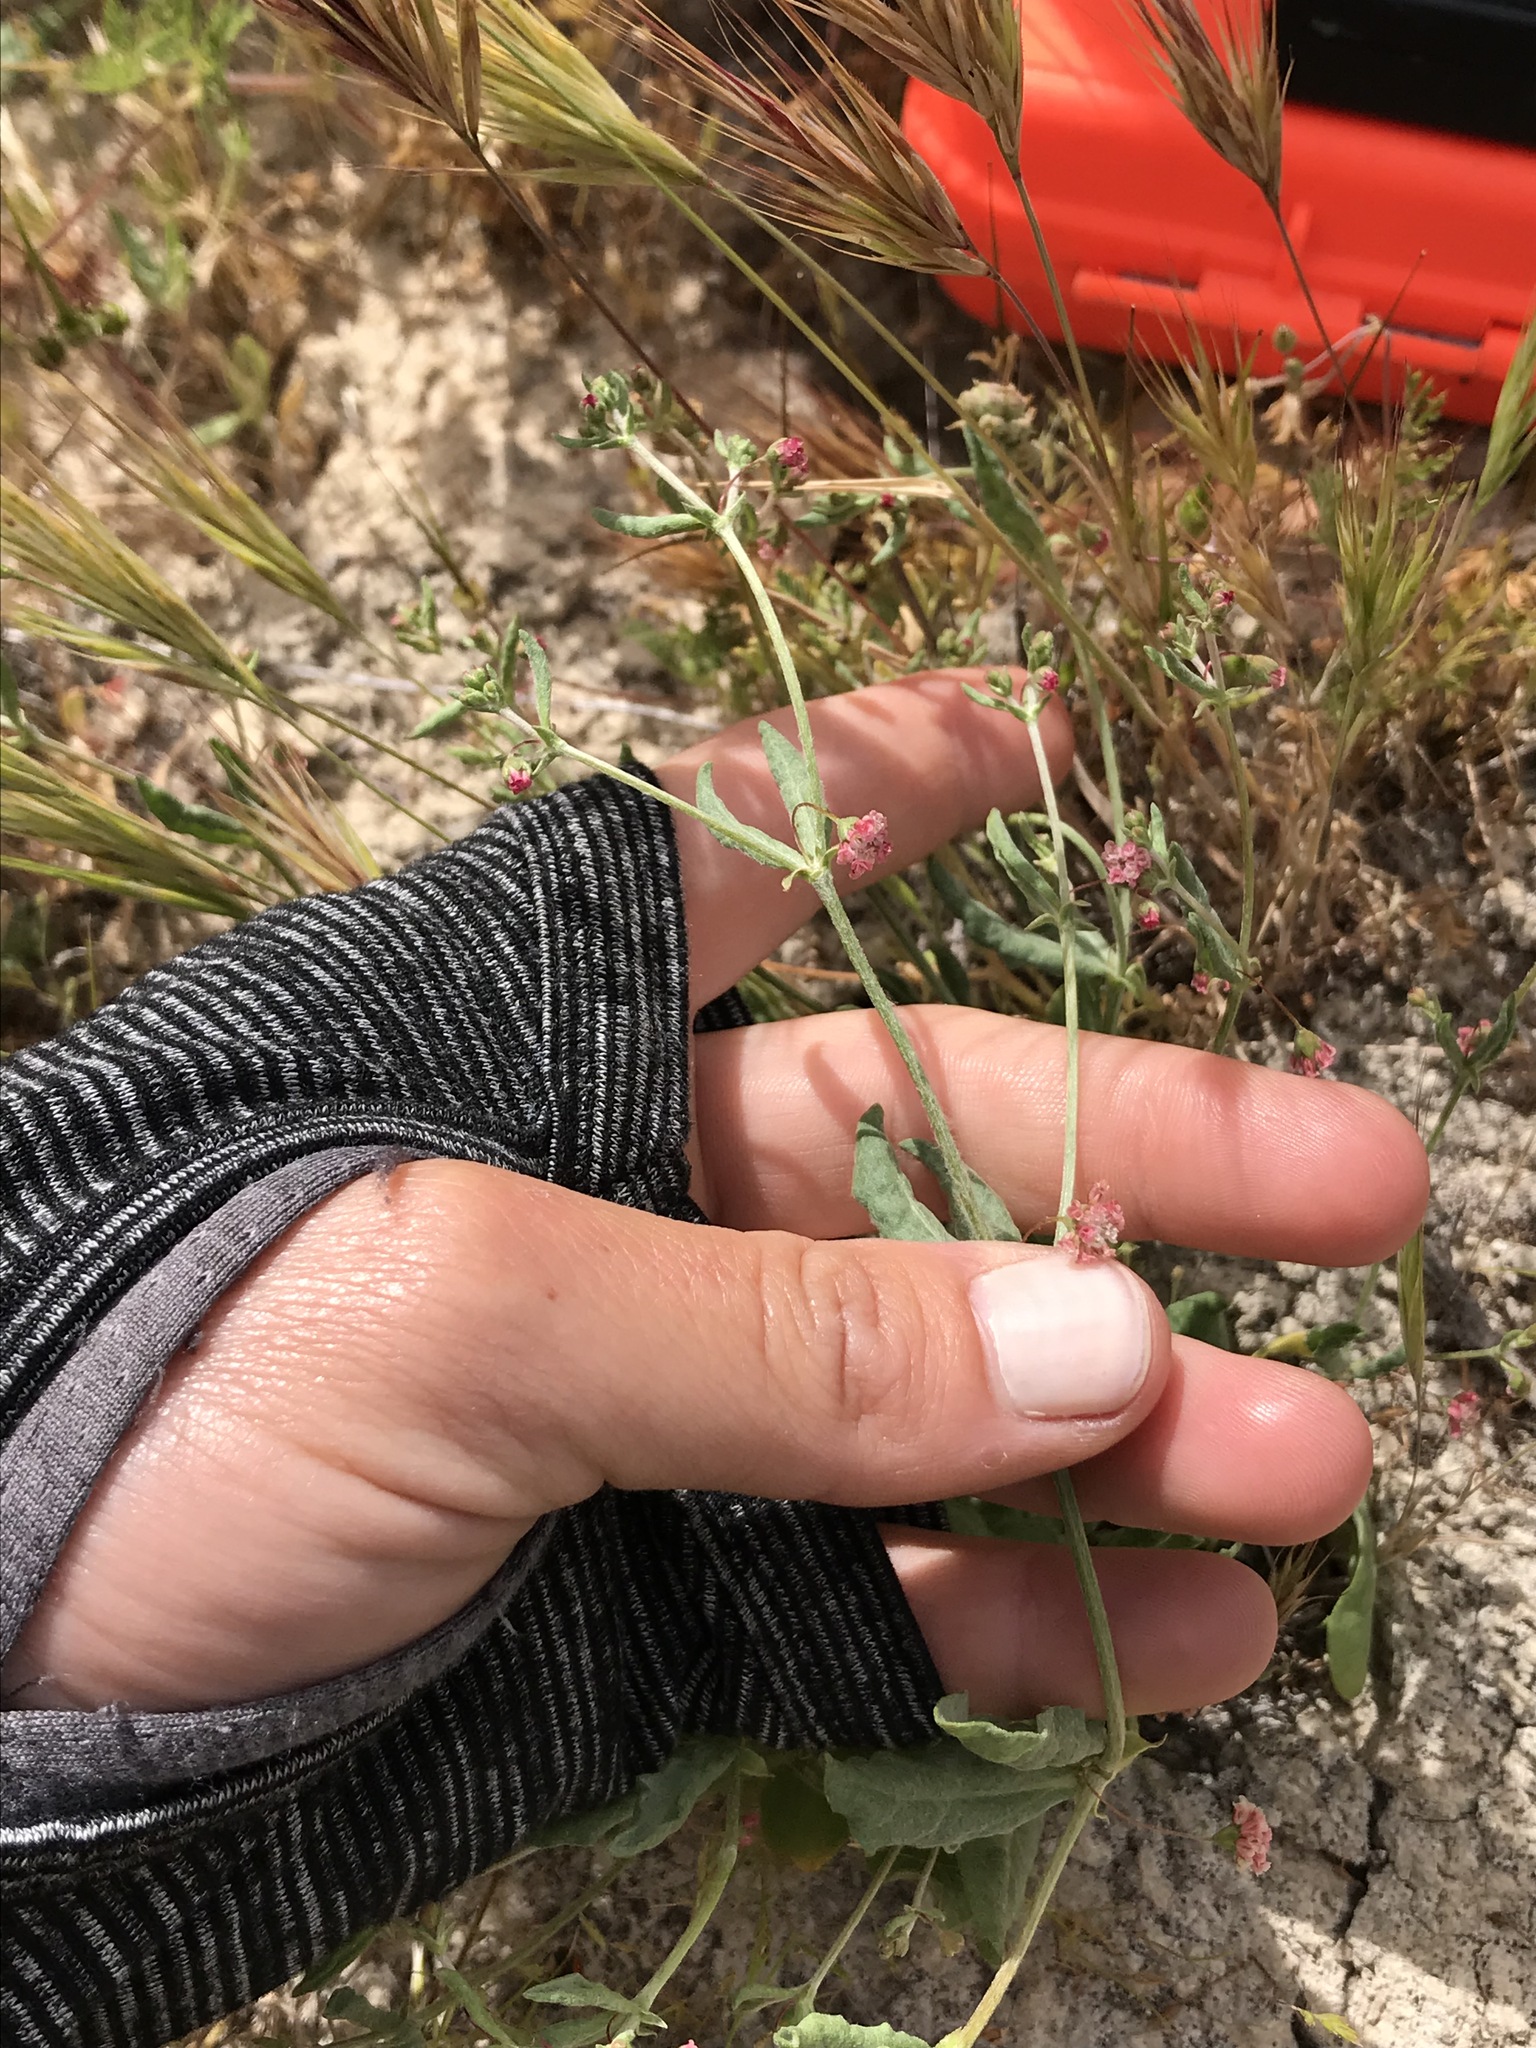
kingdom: Plantae
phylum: Tracheophyta
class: Magnoliopsida
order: Caryophyllales
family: Polygonaceae
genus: Eriogonum
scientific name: Eriogonum gracillimum
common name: Rose-and-white wild buckwheat
